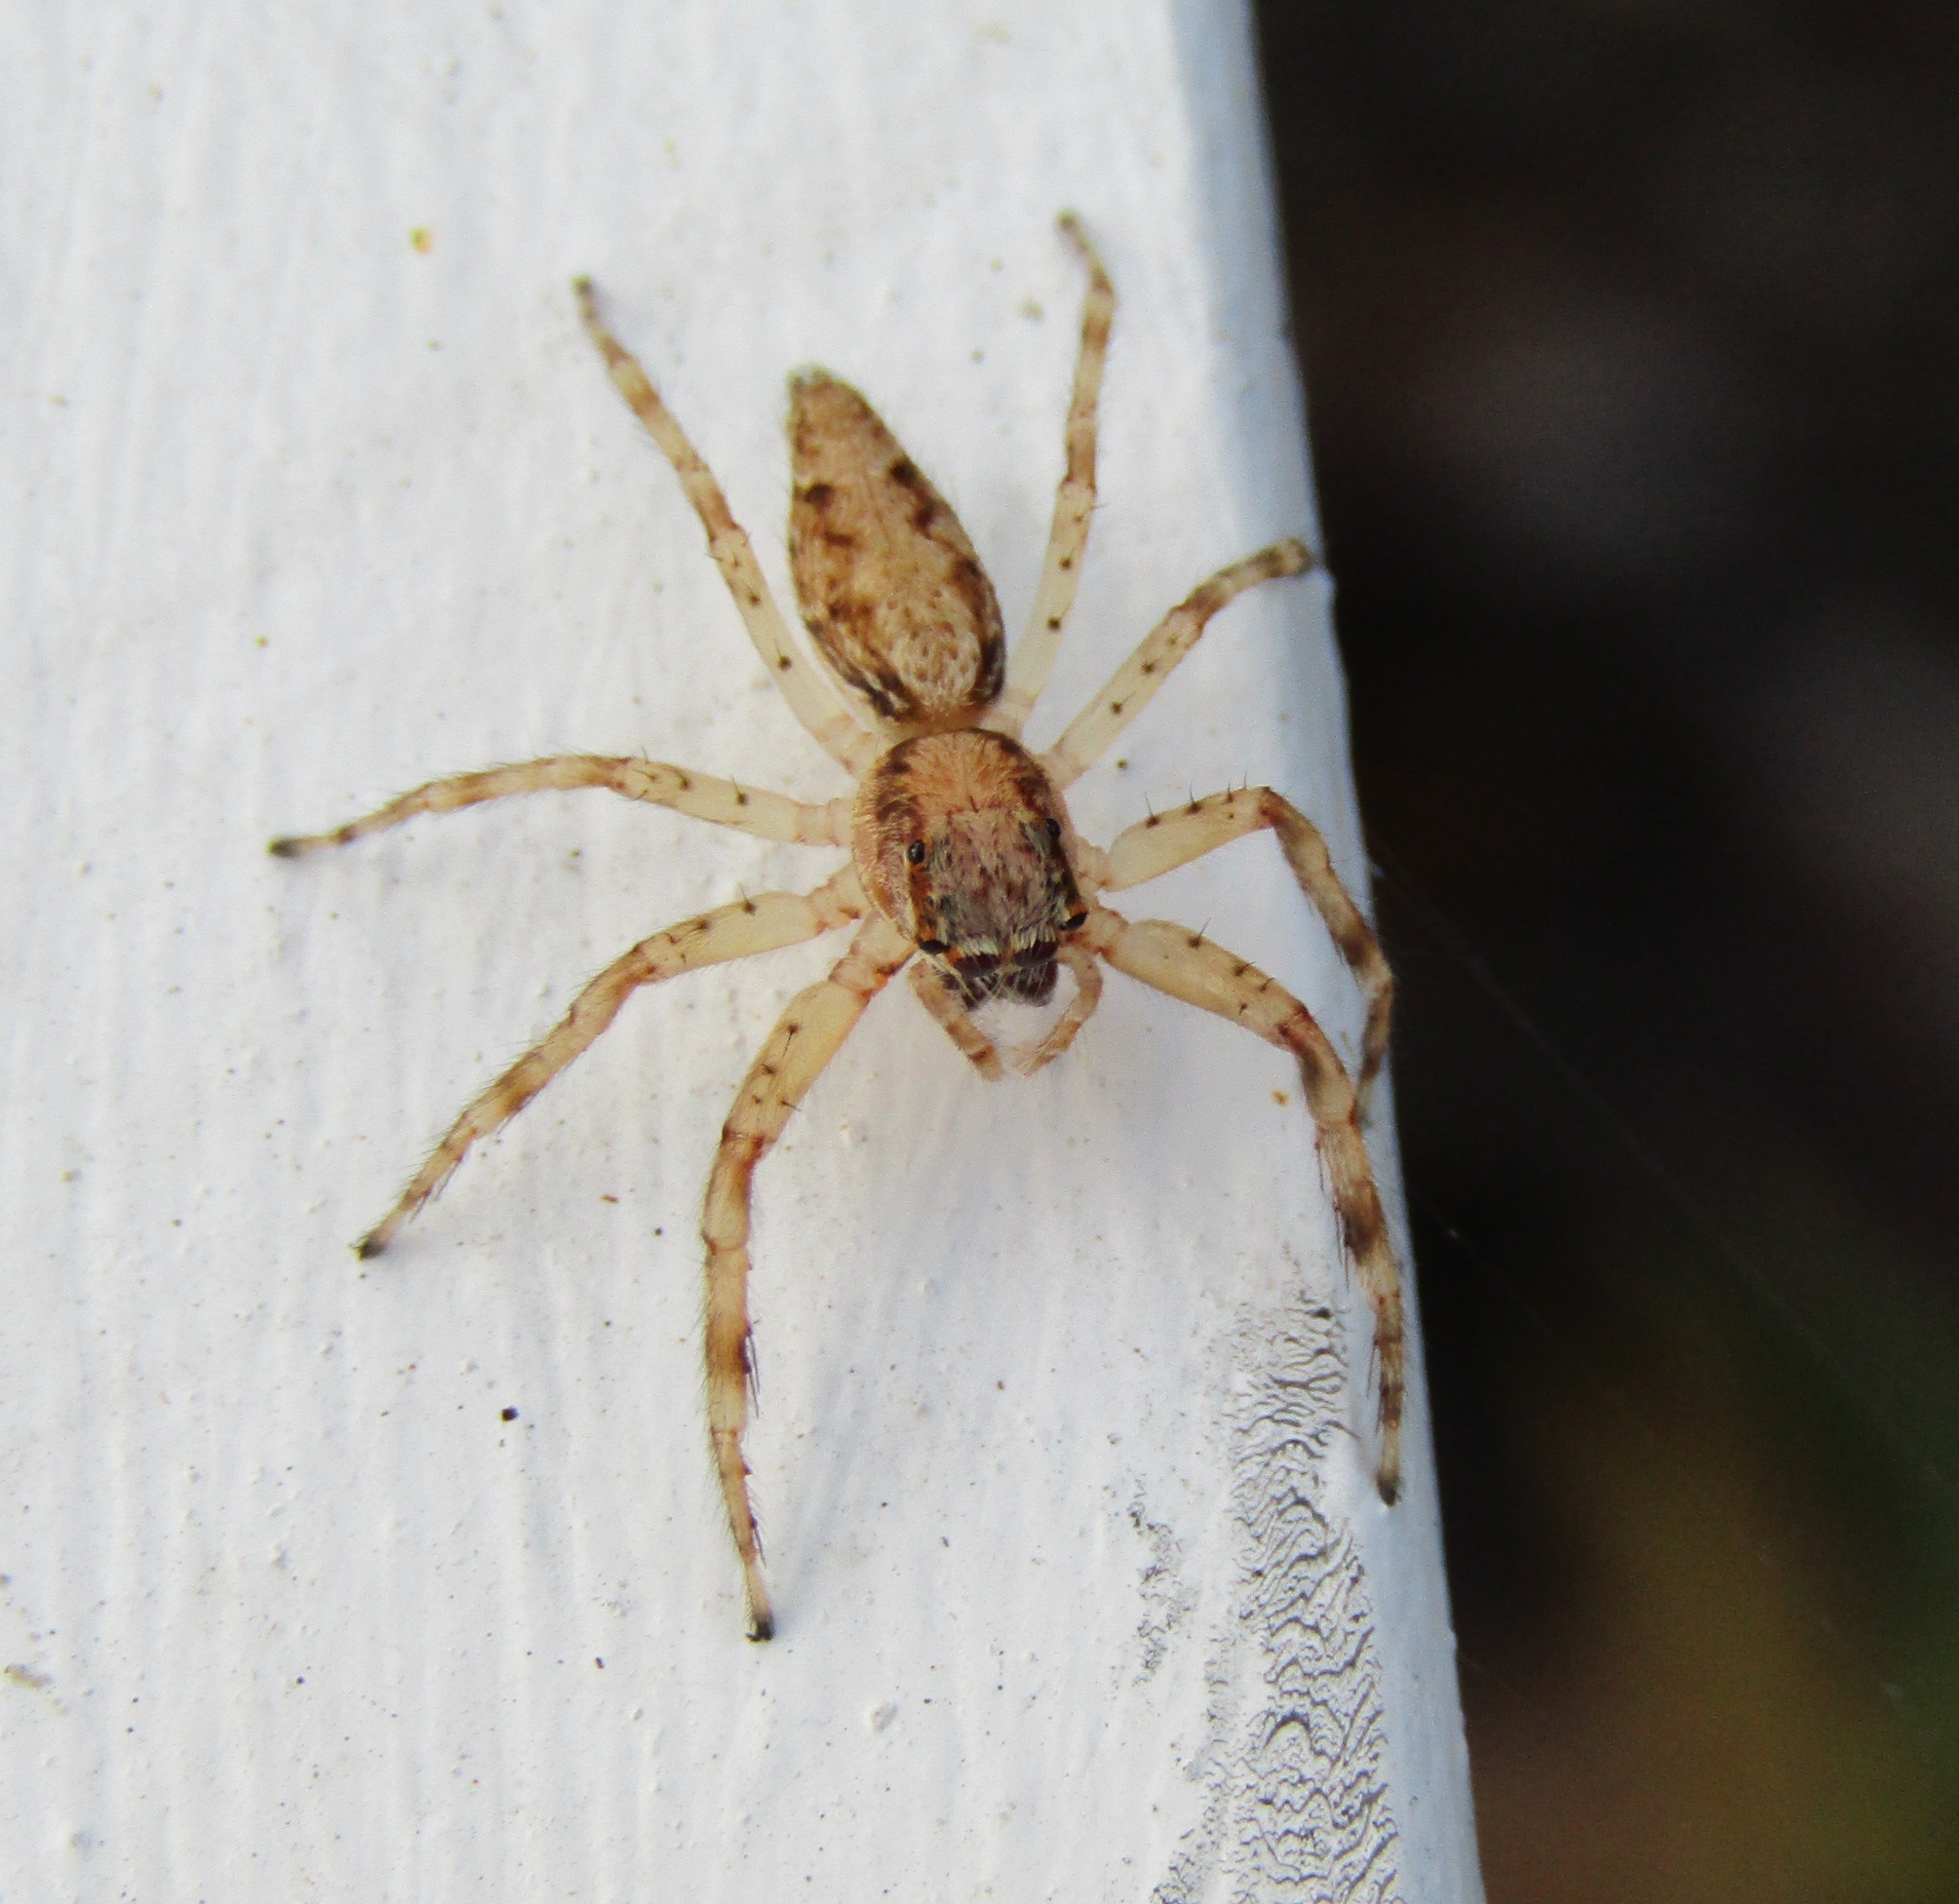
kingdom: Animalia
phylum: Arthropoda
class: Arachnida
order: Araneae
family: Salticidae
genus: Helpis
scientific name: Helpis minitabunda
